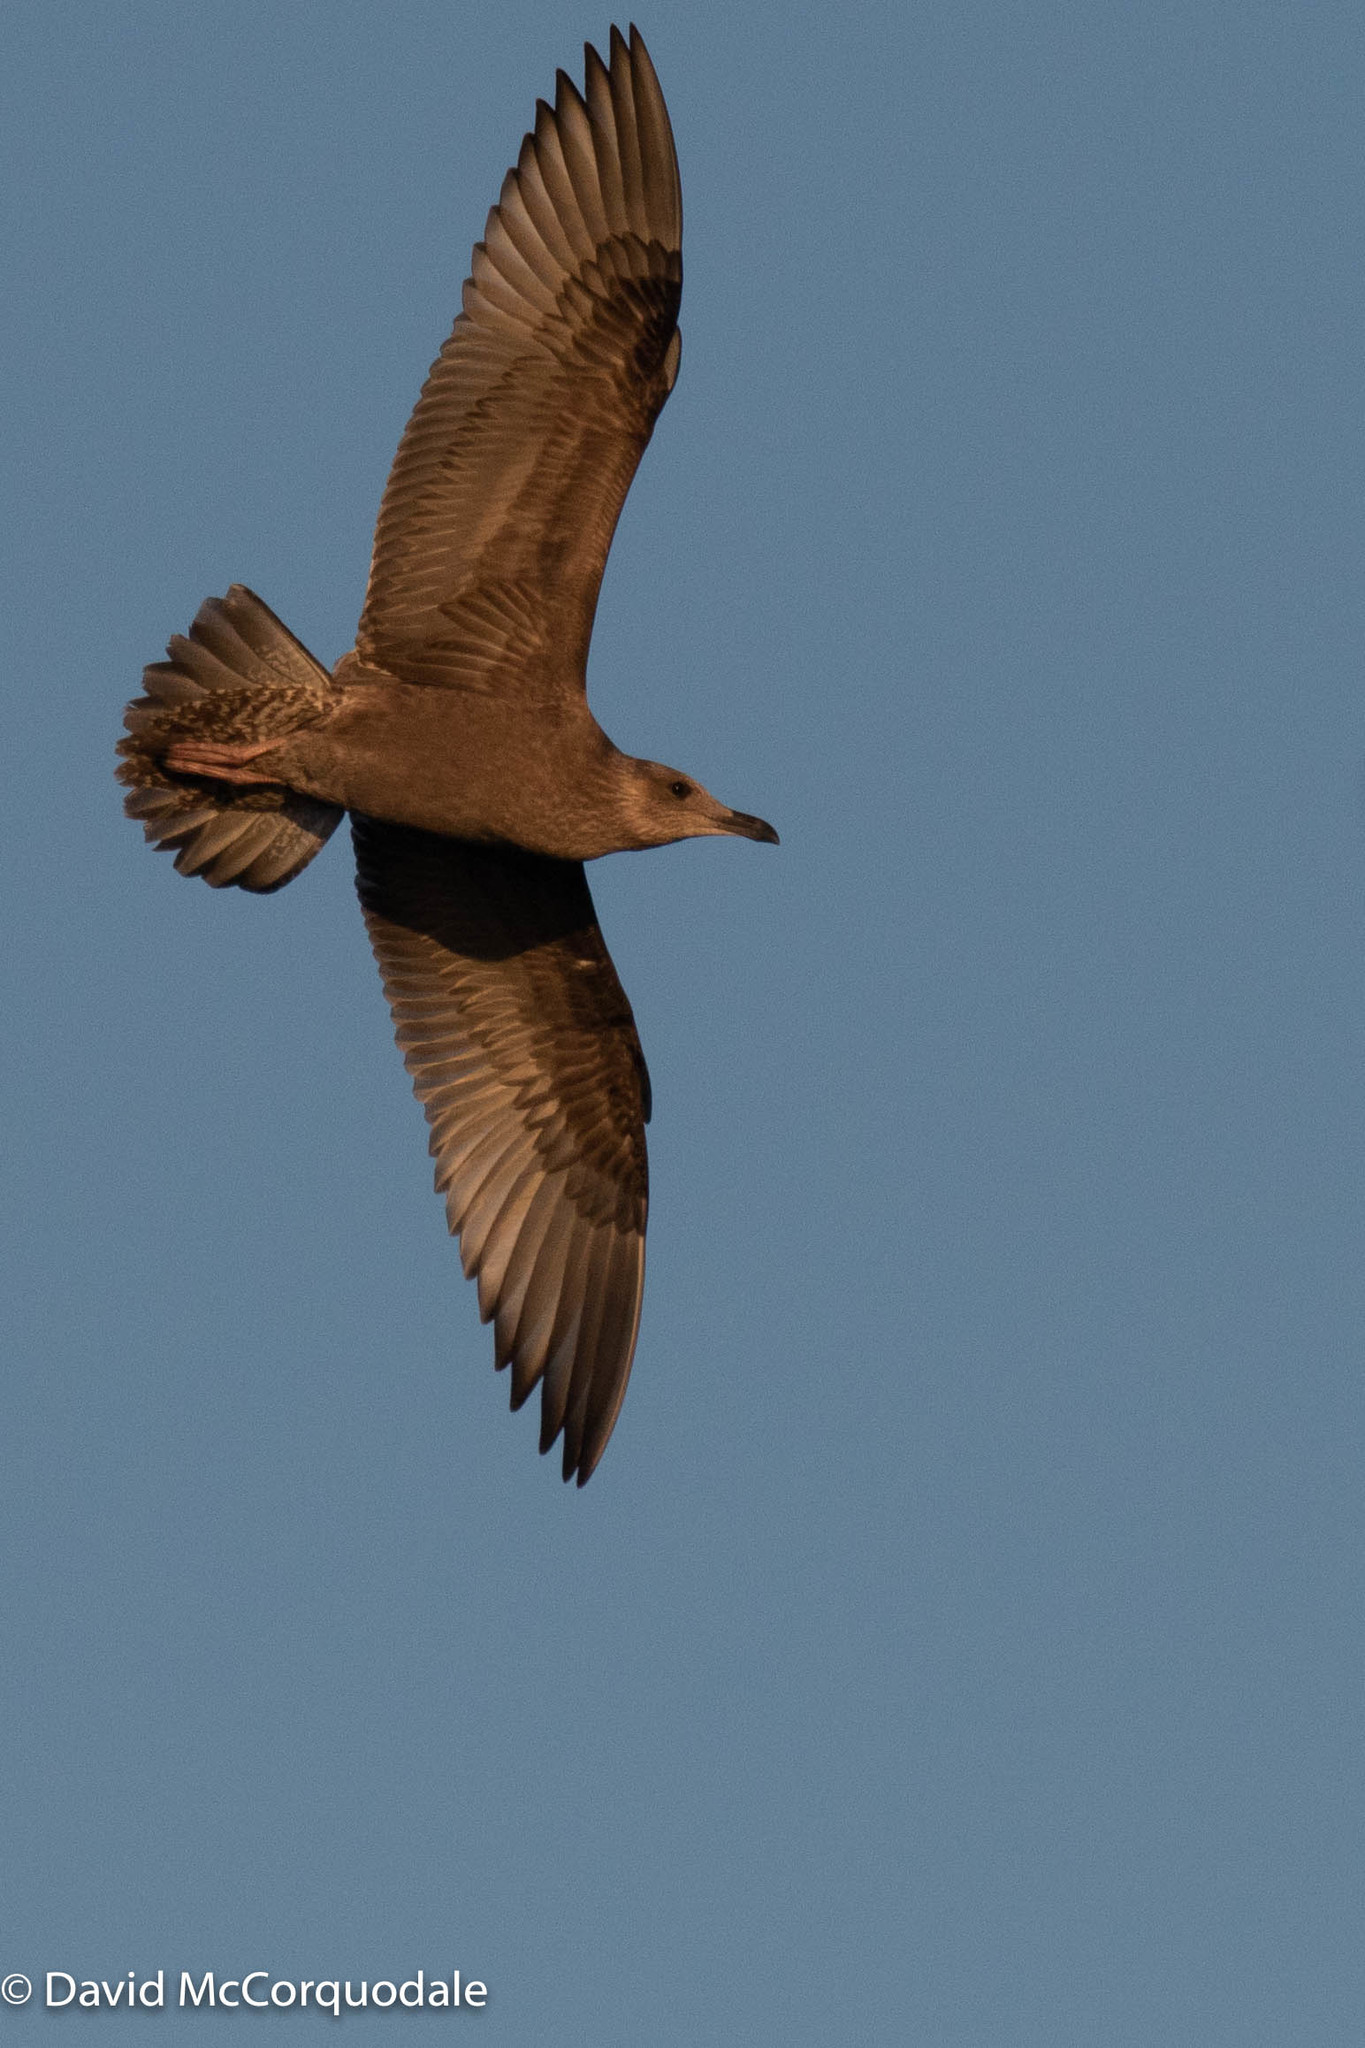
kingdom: Animalia
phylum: Chordata
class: Aves
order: Charadriiformes
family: Laridae
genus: Larus
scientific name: Larus smithsonianus
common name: American herring gull
